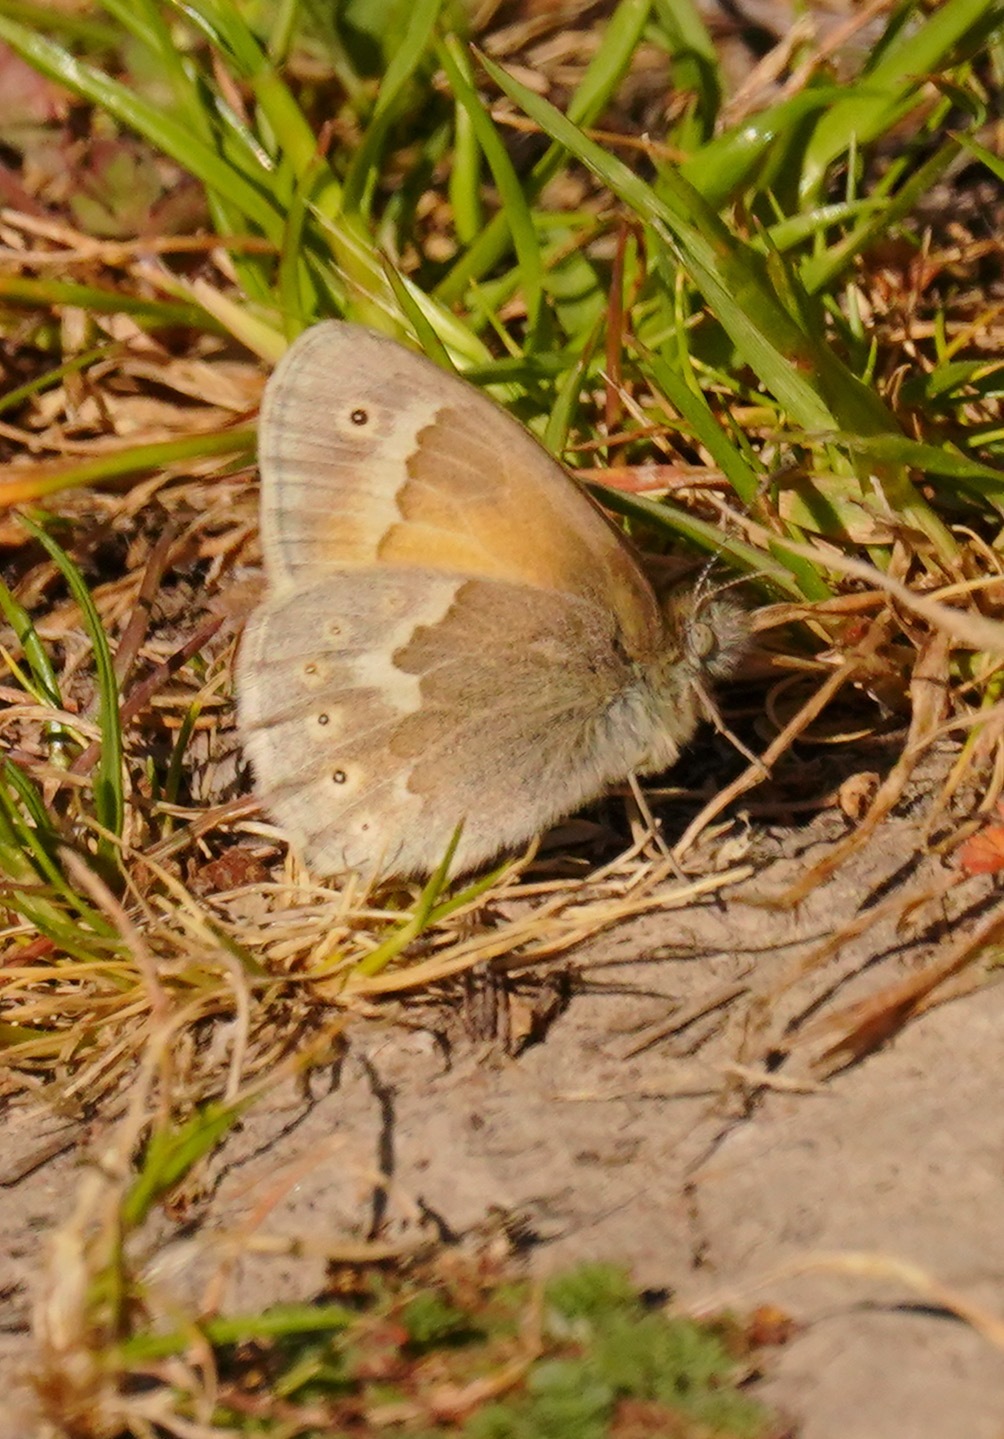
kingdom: Animalia
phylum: Arthropoda
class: Insecta
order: Lepidoptera
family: Nymphalidae
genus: Coenonympha
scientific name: Coenonympha california
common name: Common ringlet
